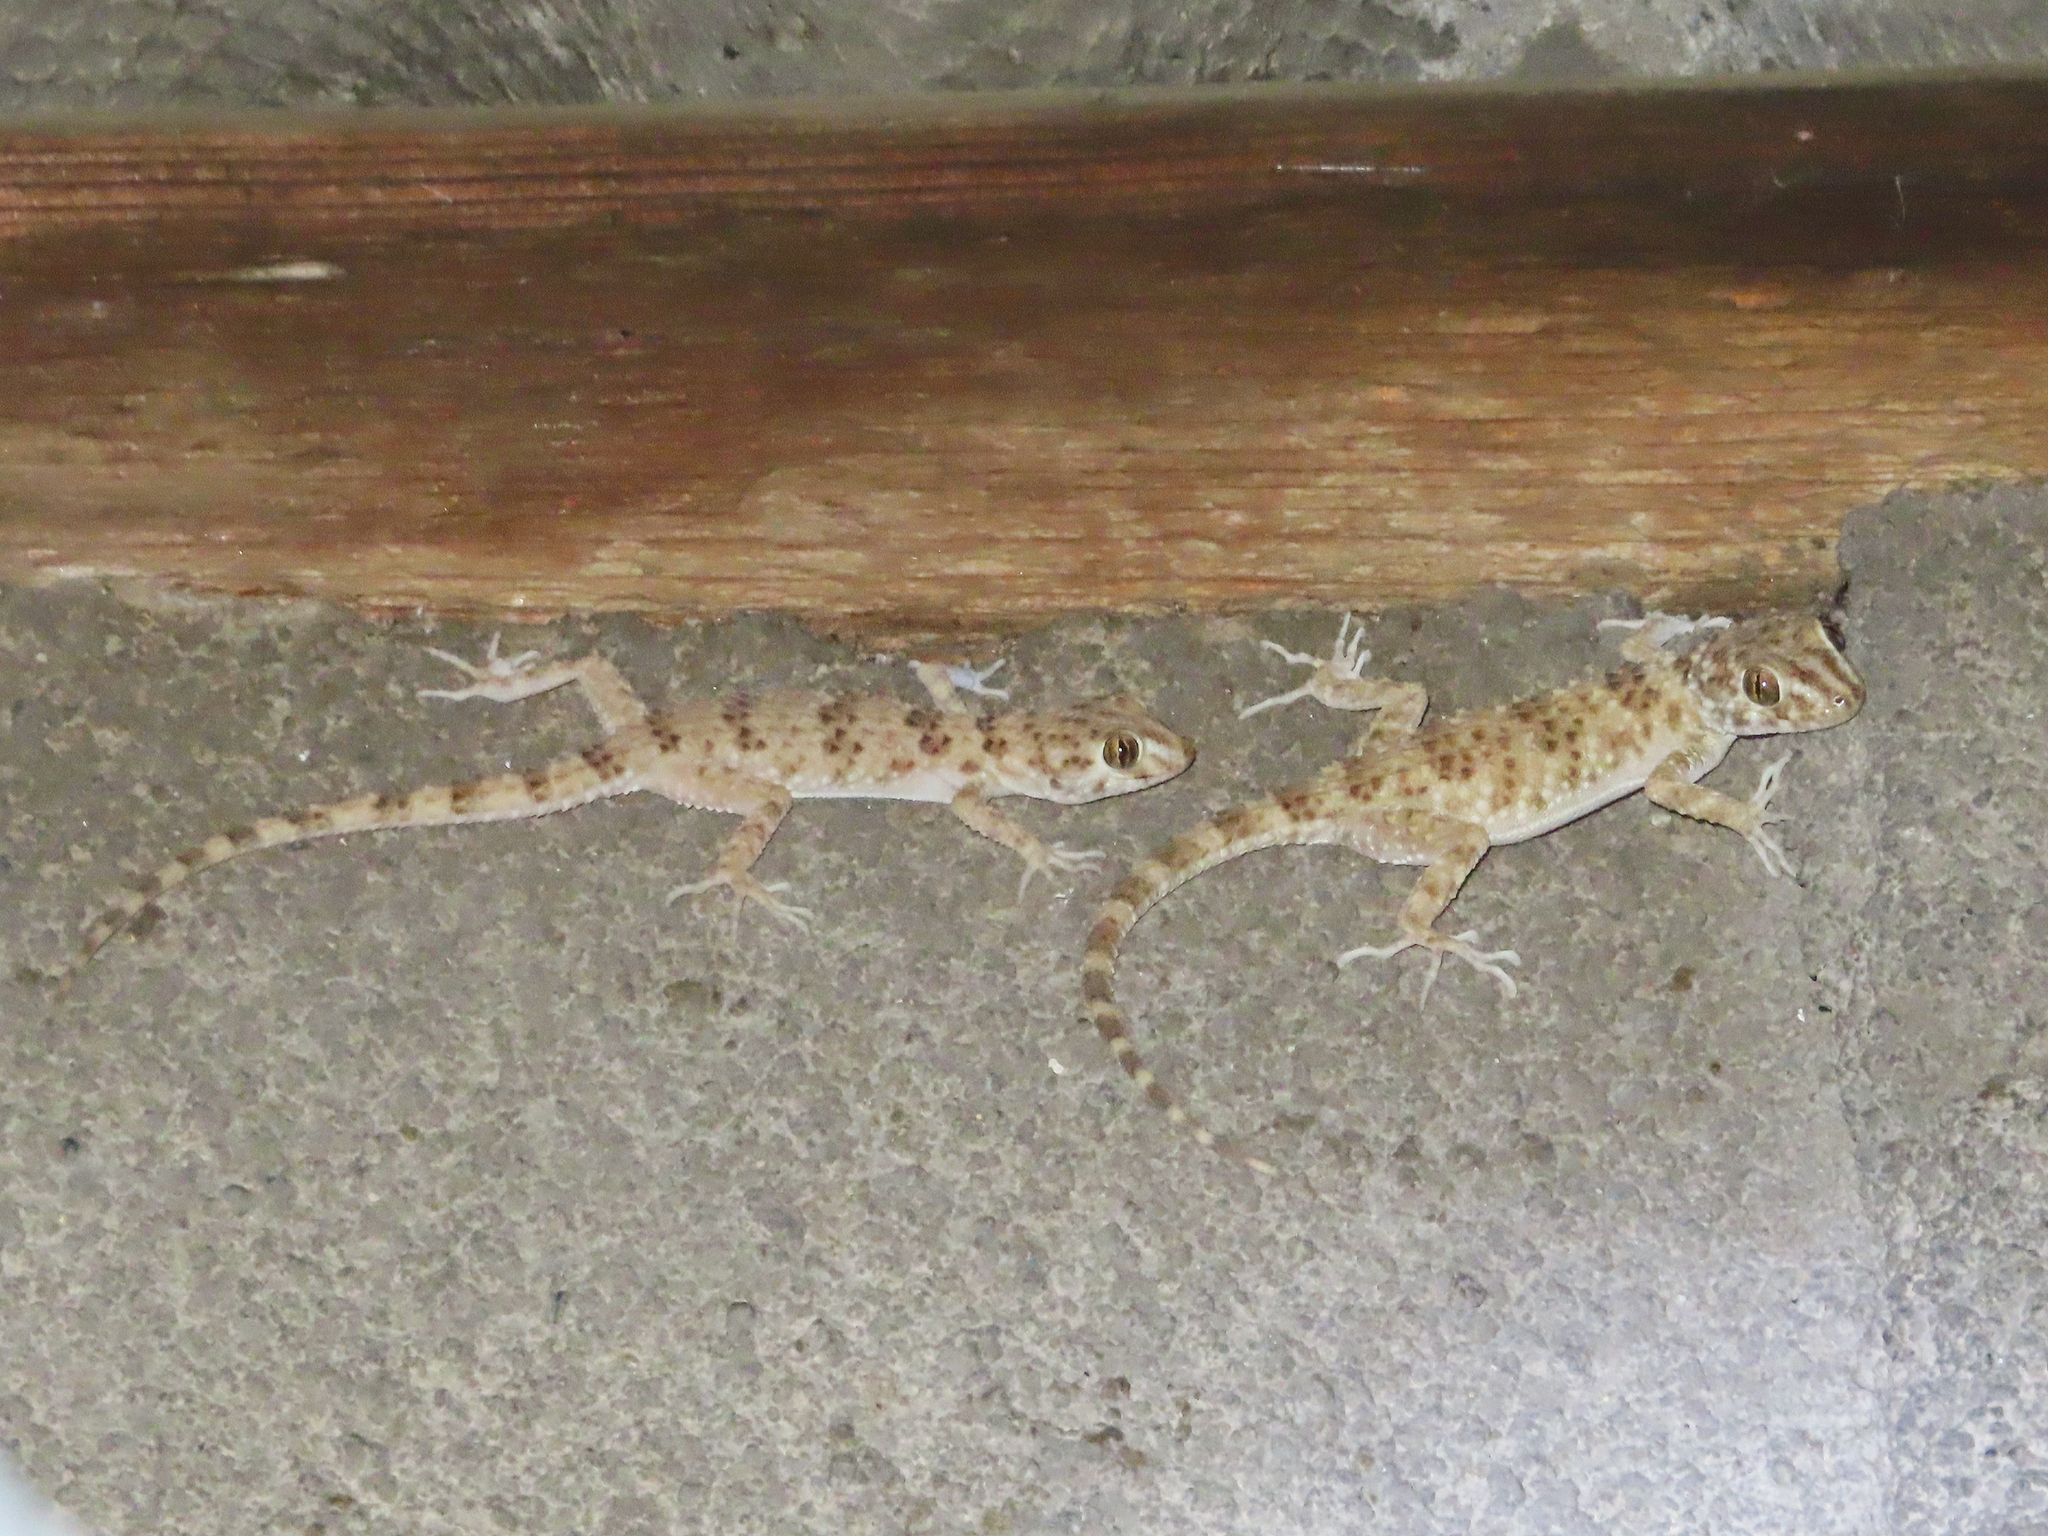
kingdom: Animalia
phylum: Chordata
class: Squamata
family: Gekkonidae
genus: Tenuidactylus
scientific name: Tenuidactylus caspius
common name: Caspian bent-toed gecko
